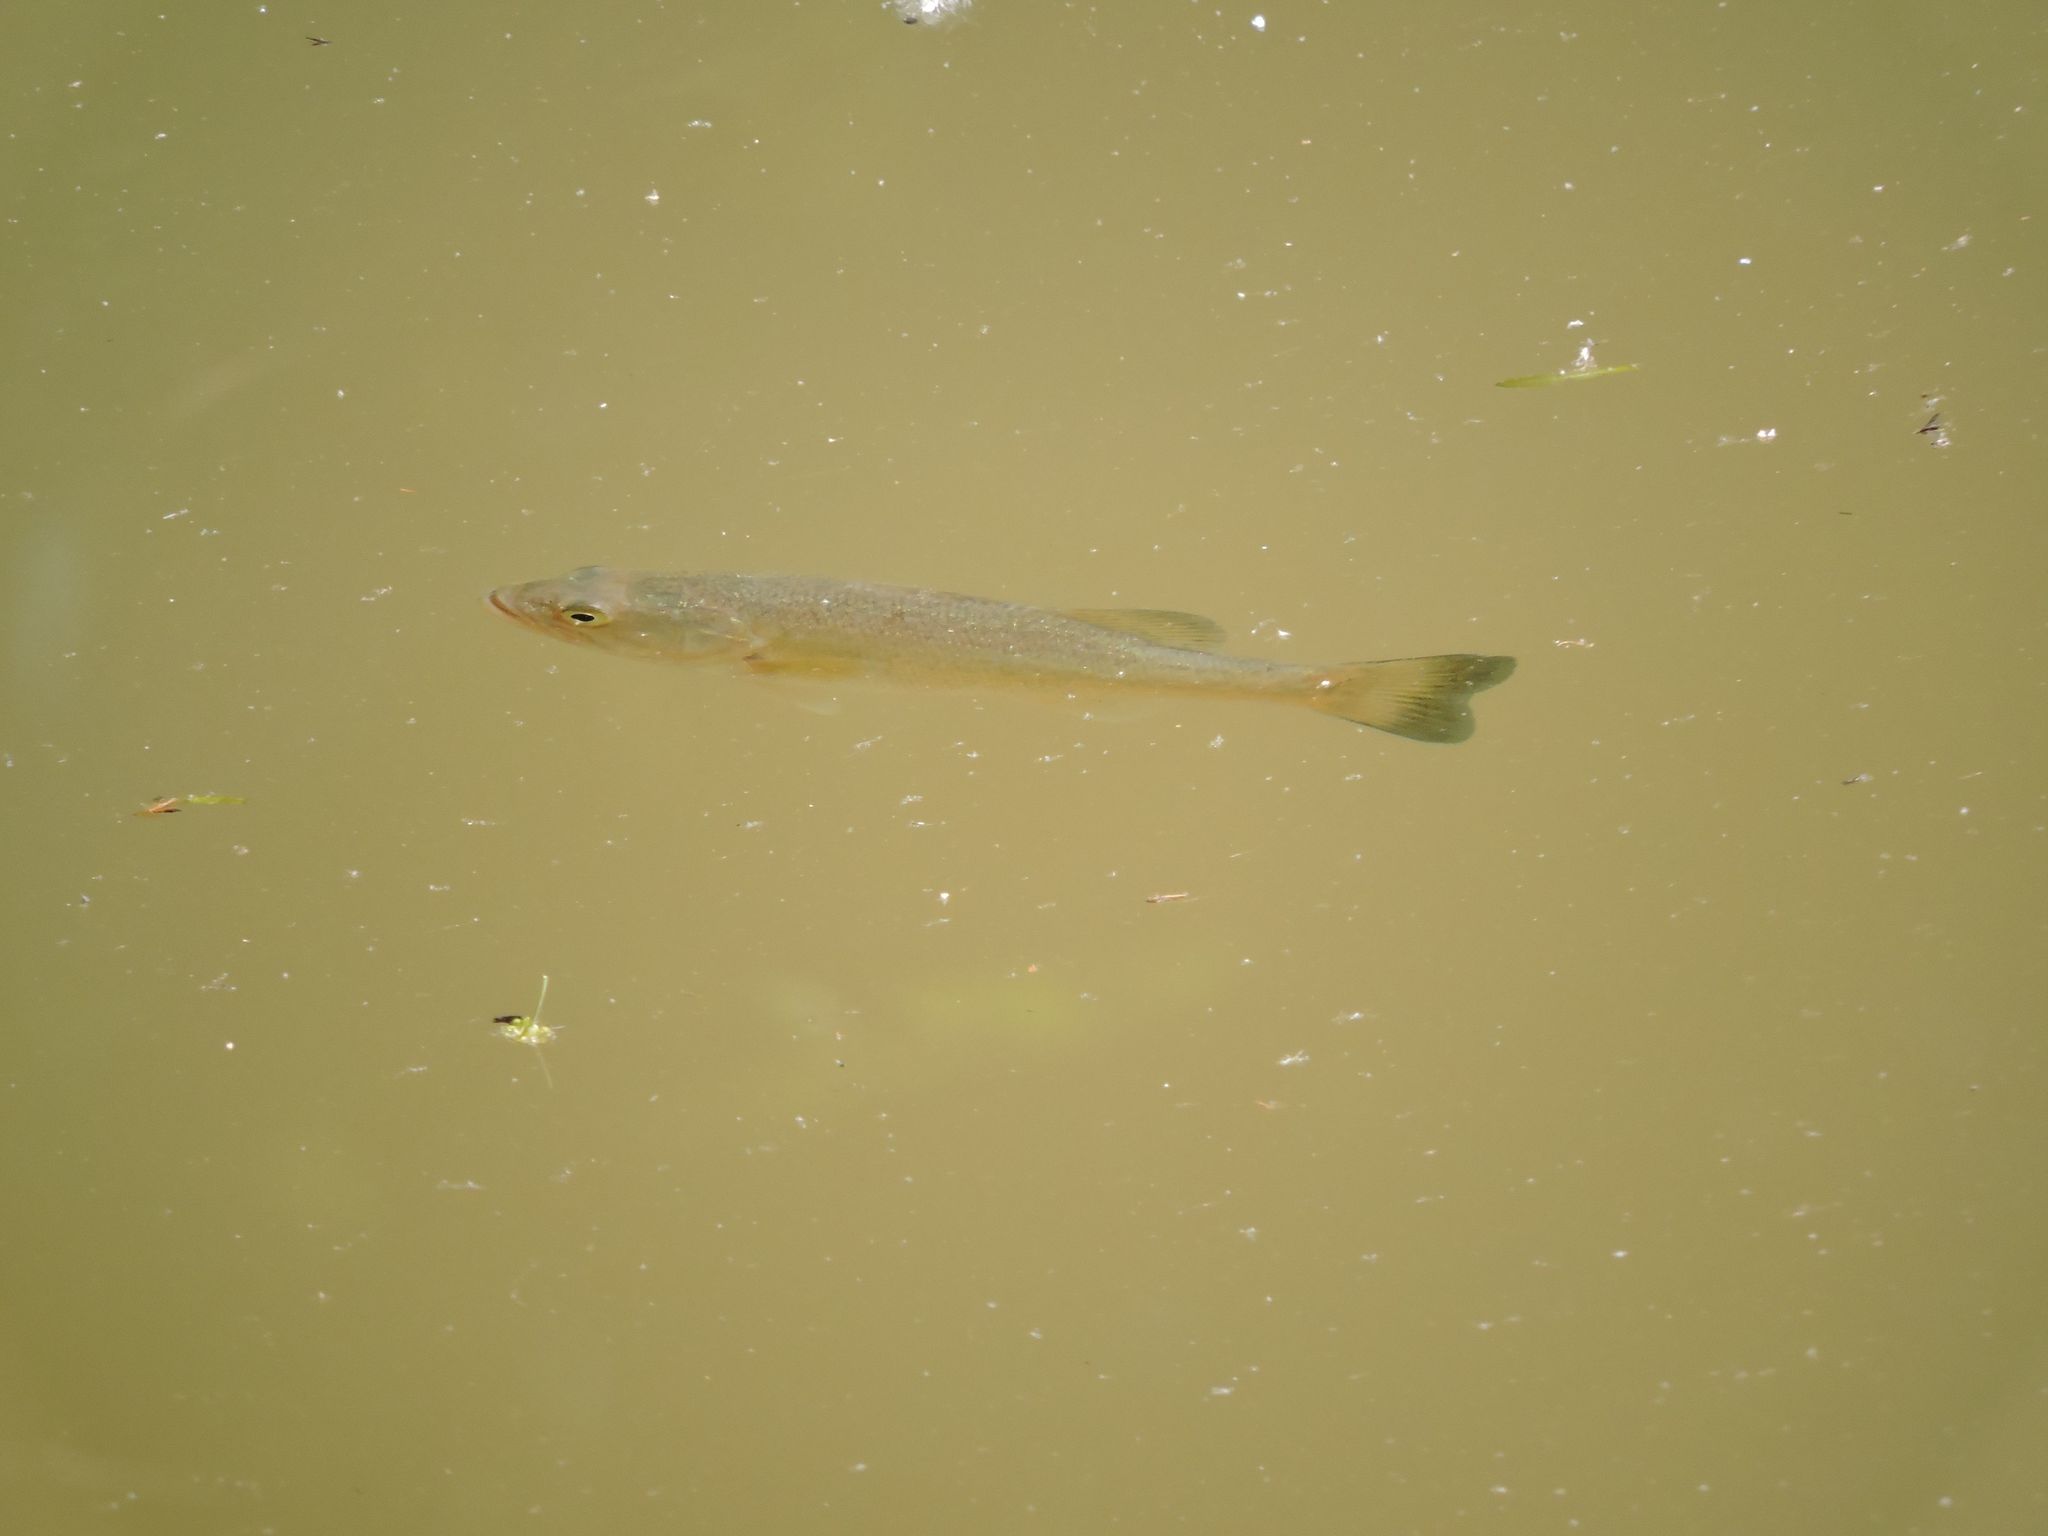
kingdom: Animalia
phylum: Chordata
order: Perciformes
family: Centrarchidae
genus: Micropterus
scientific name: Micropterus
